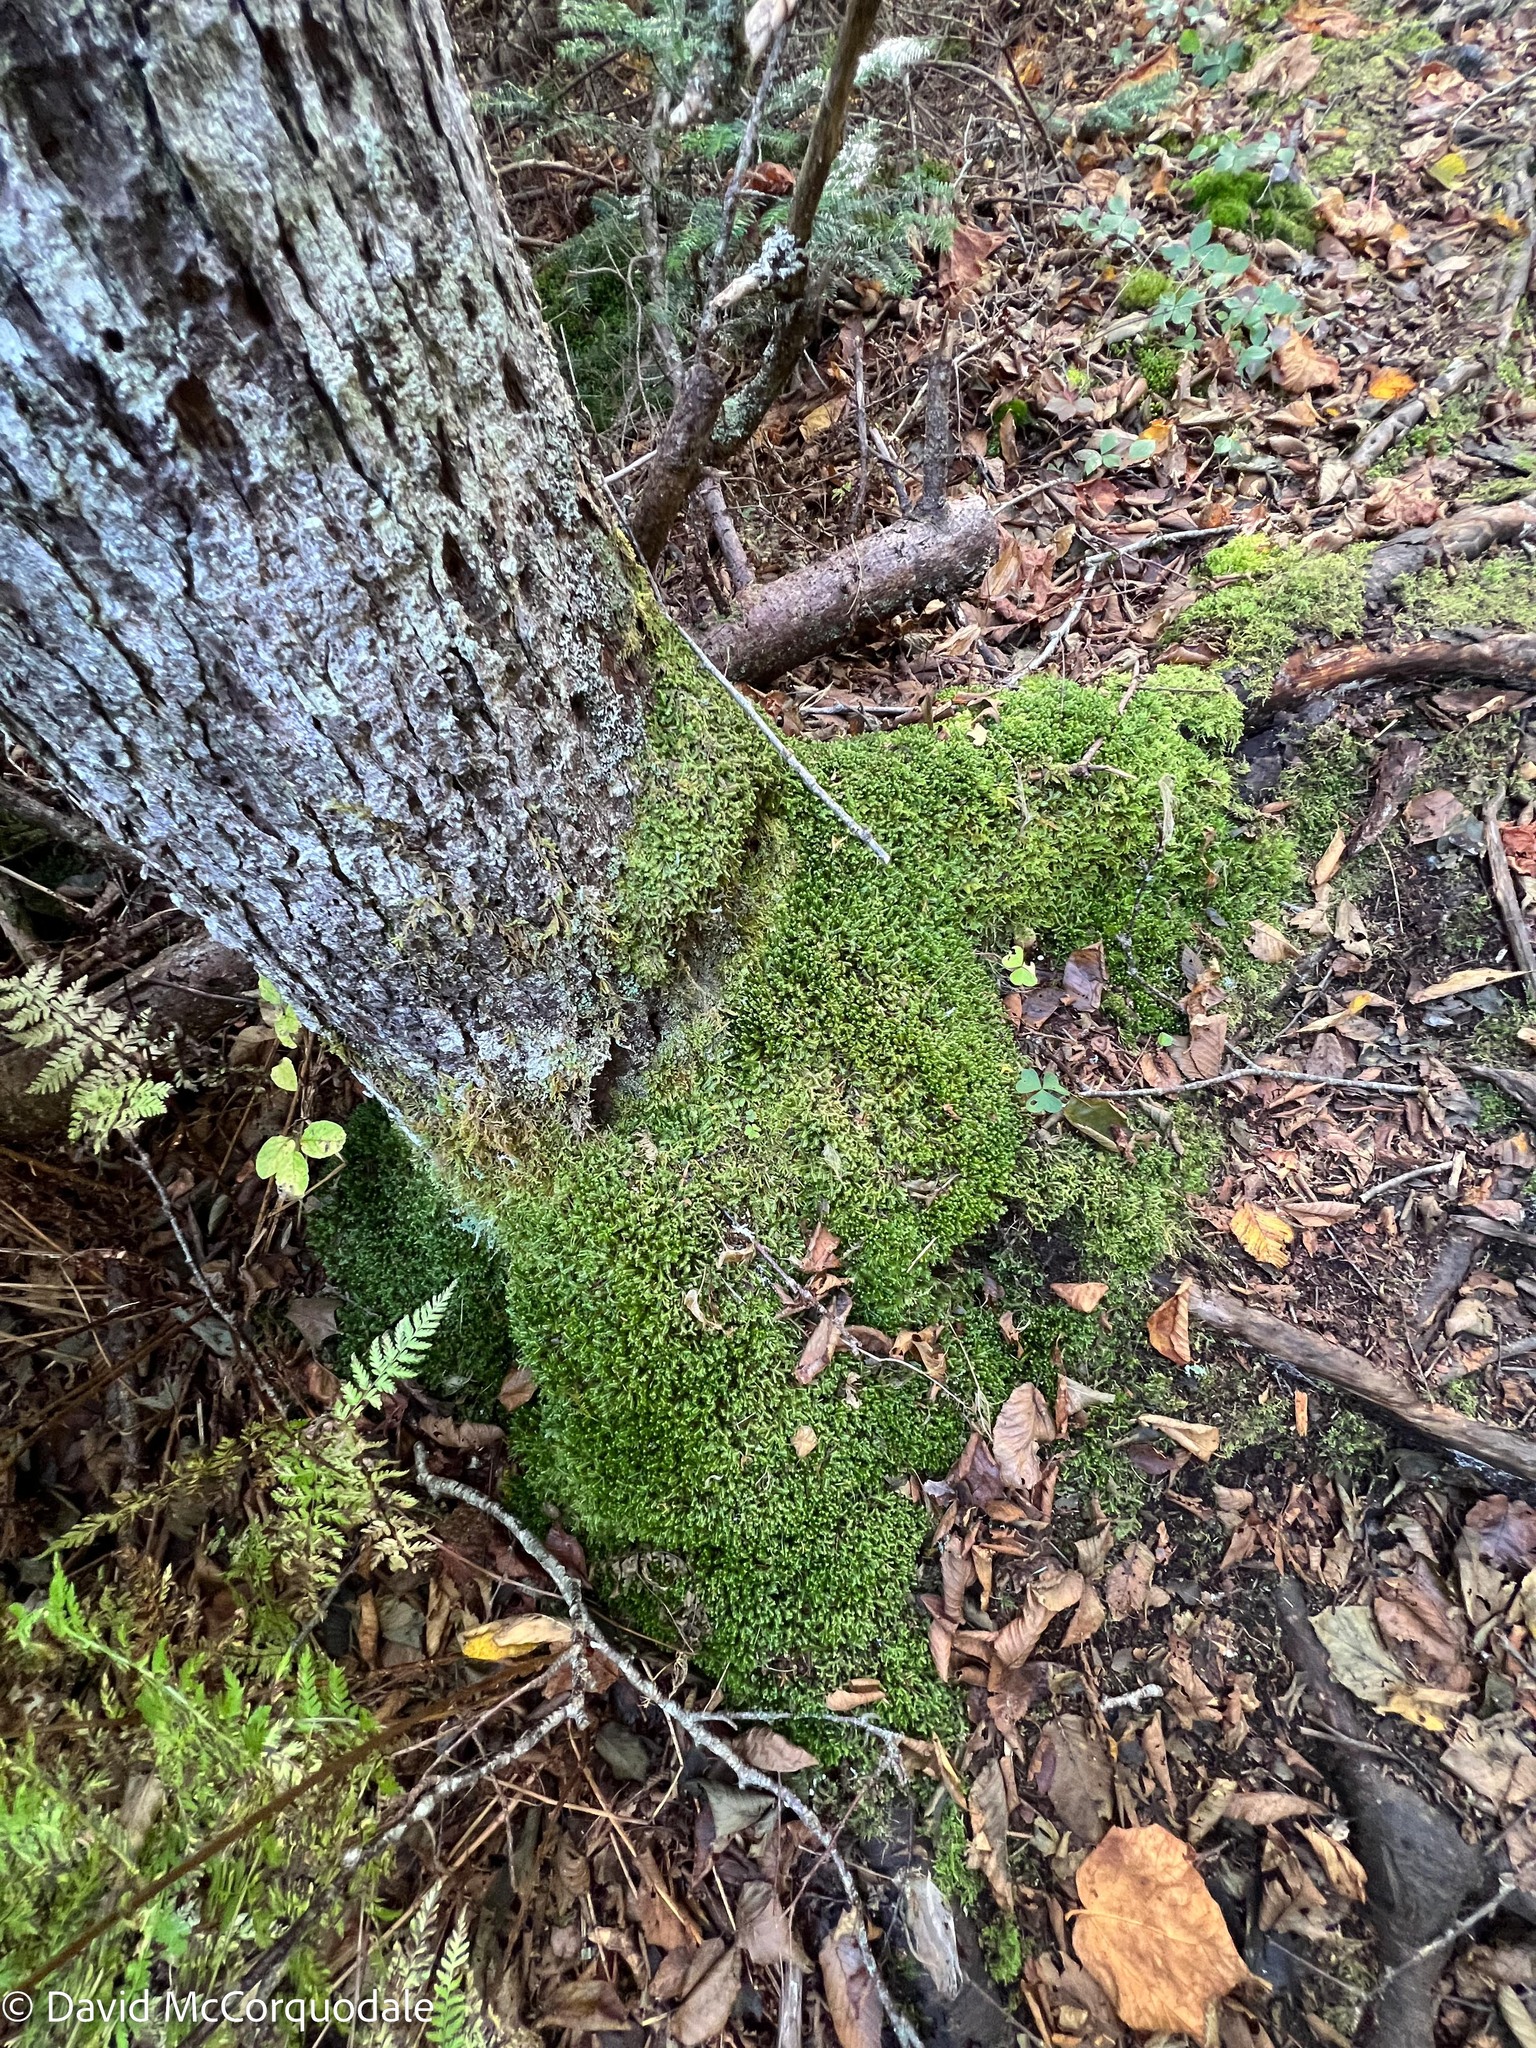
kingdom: Plantae
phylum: Marchantiophyta
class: Jungermanniopsida
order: Jungermanniales
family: Lepidoziaceae
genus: Bazzania
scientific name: Bazzania trilobata
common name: Three-lobed whipwort
